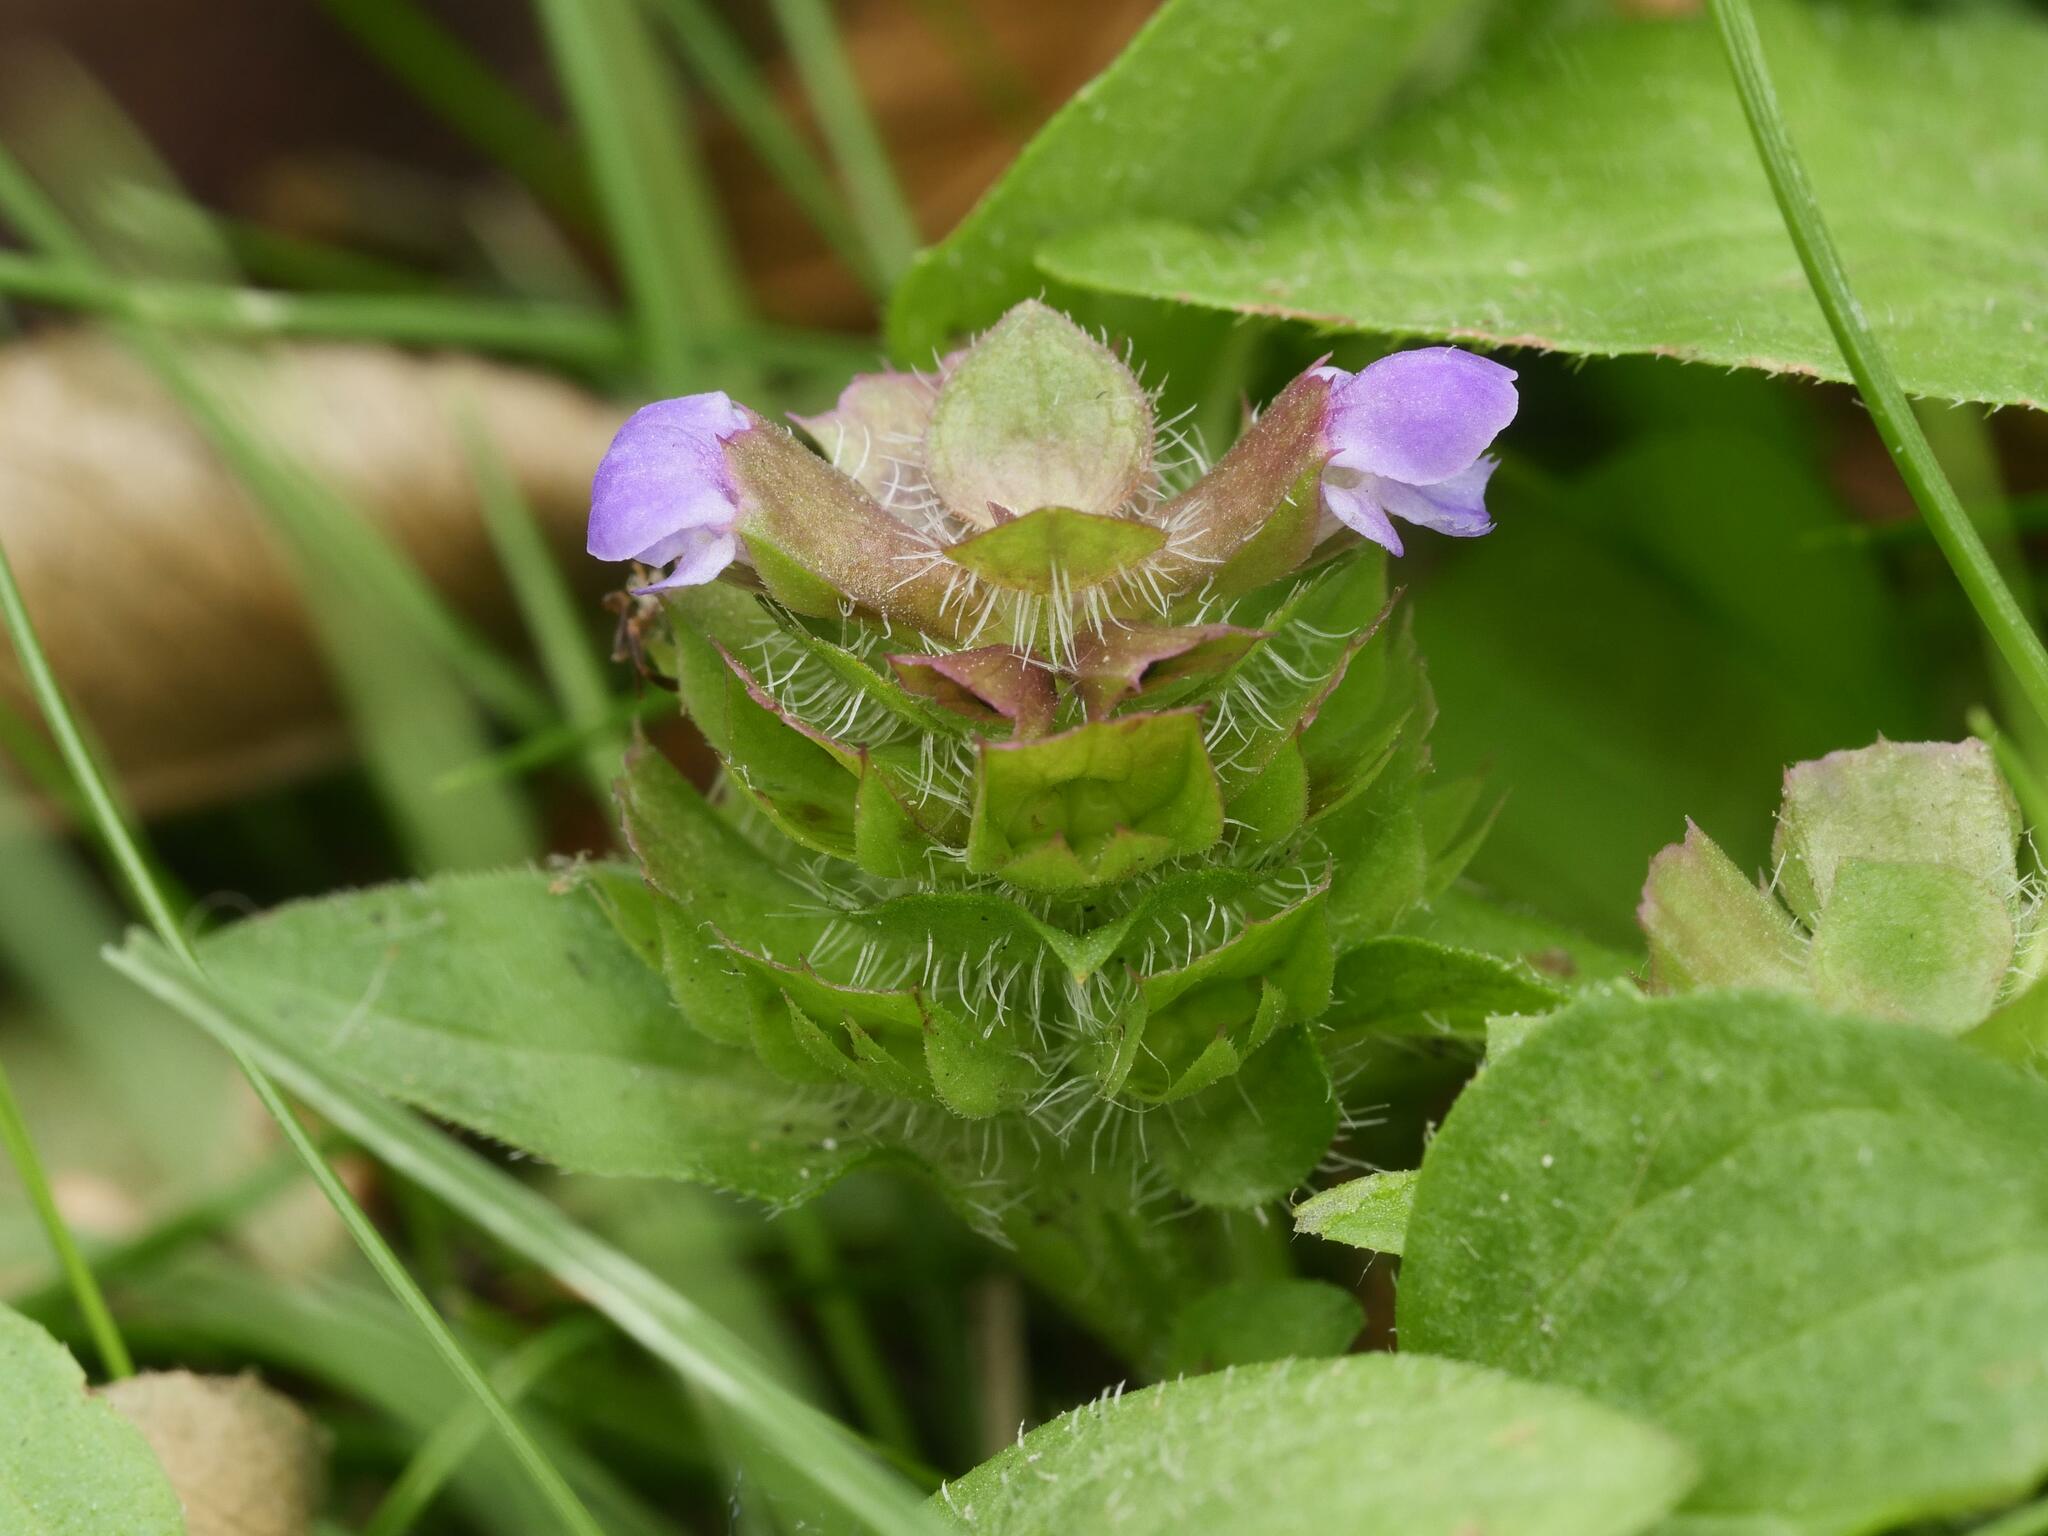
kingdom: Plantae
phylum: Tracheophyta
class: Magnoliopsida
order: Lamiales
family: Lamiaceae
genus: Prunella
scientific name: Prunella vulgaris
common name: Heal-all
